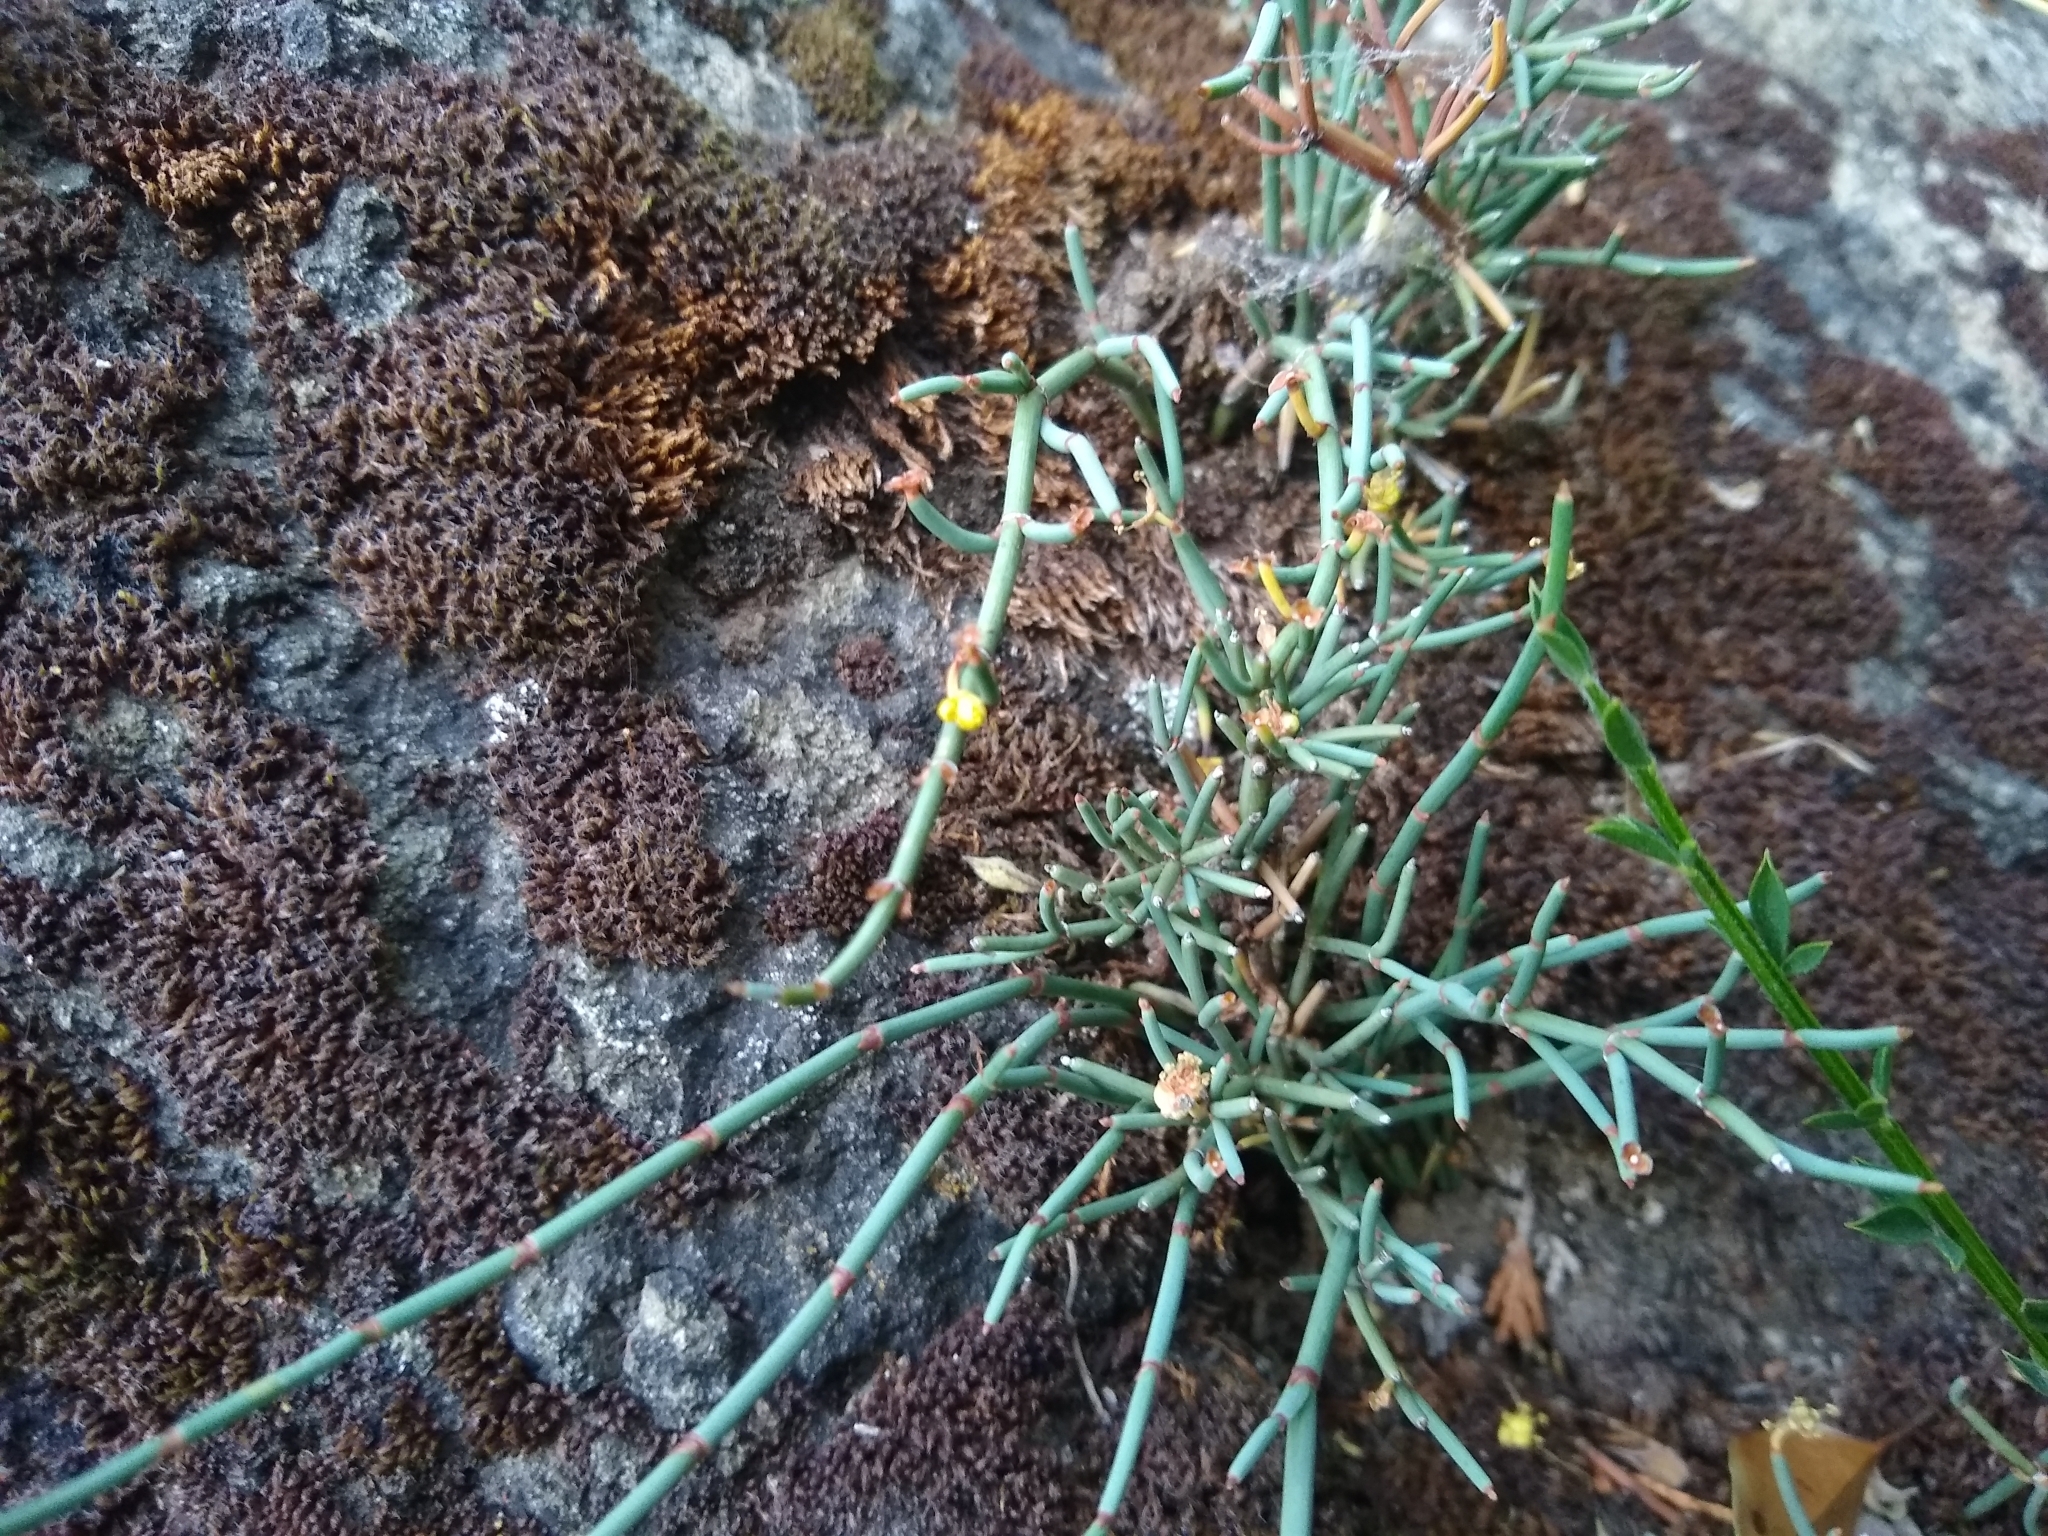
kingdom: Plantae
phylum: Tracheophyta
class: Gnetopsida
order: Ephedrales
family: Ephedraceae
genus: Ephedra
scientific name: Ephedra chilensis
